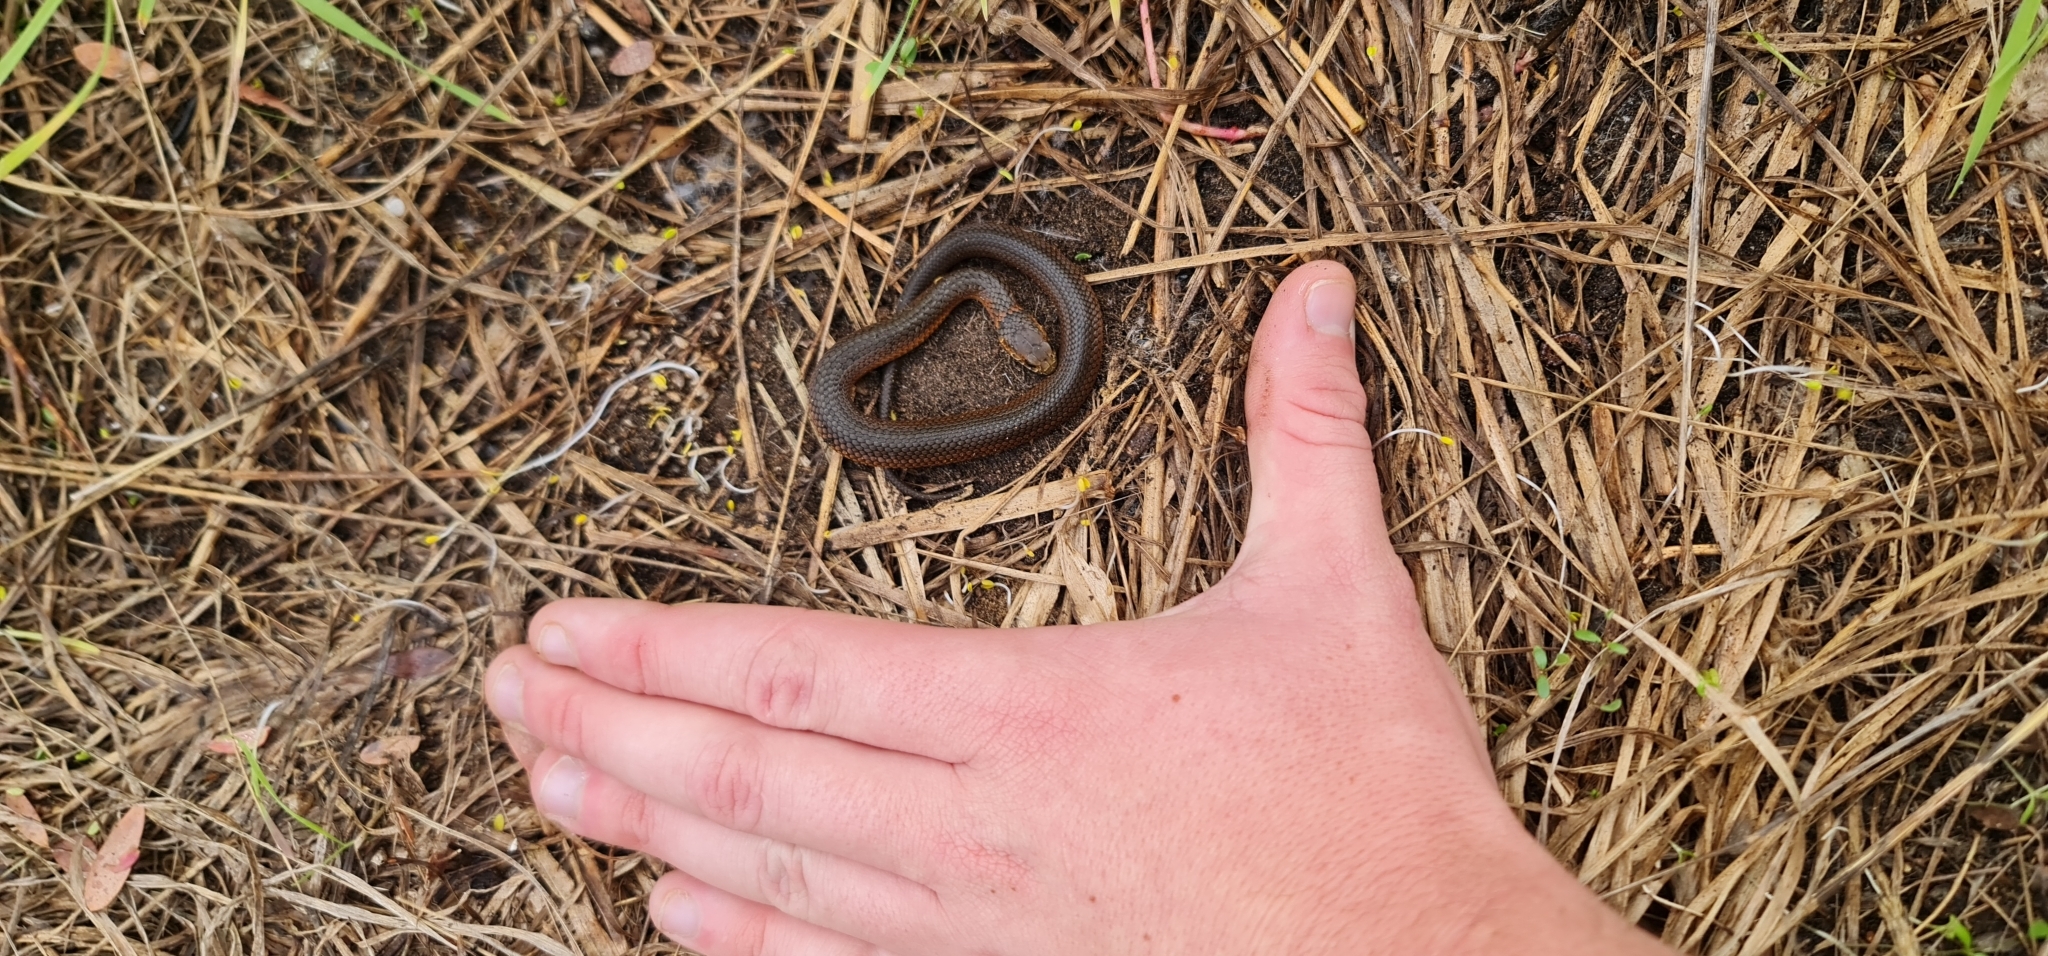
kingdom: Animalia
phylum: Chordata
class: Squamata
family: Elapidae
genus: Austrelaps
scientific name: Austrelaps superbus
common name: Copperhead snake
